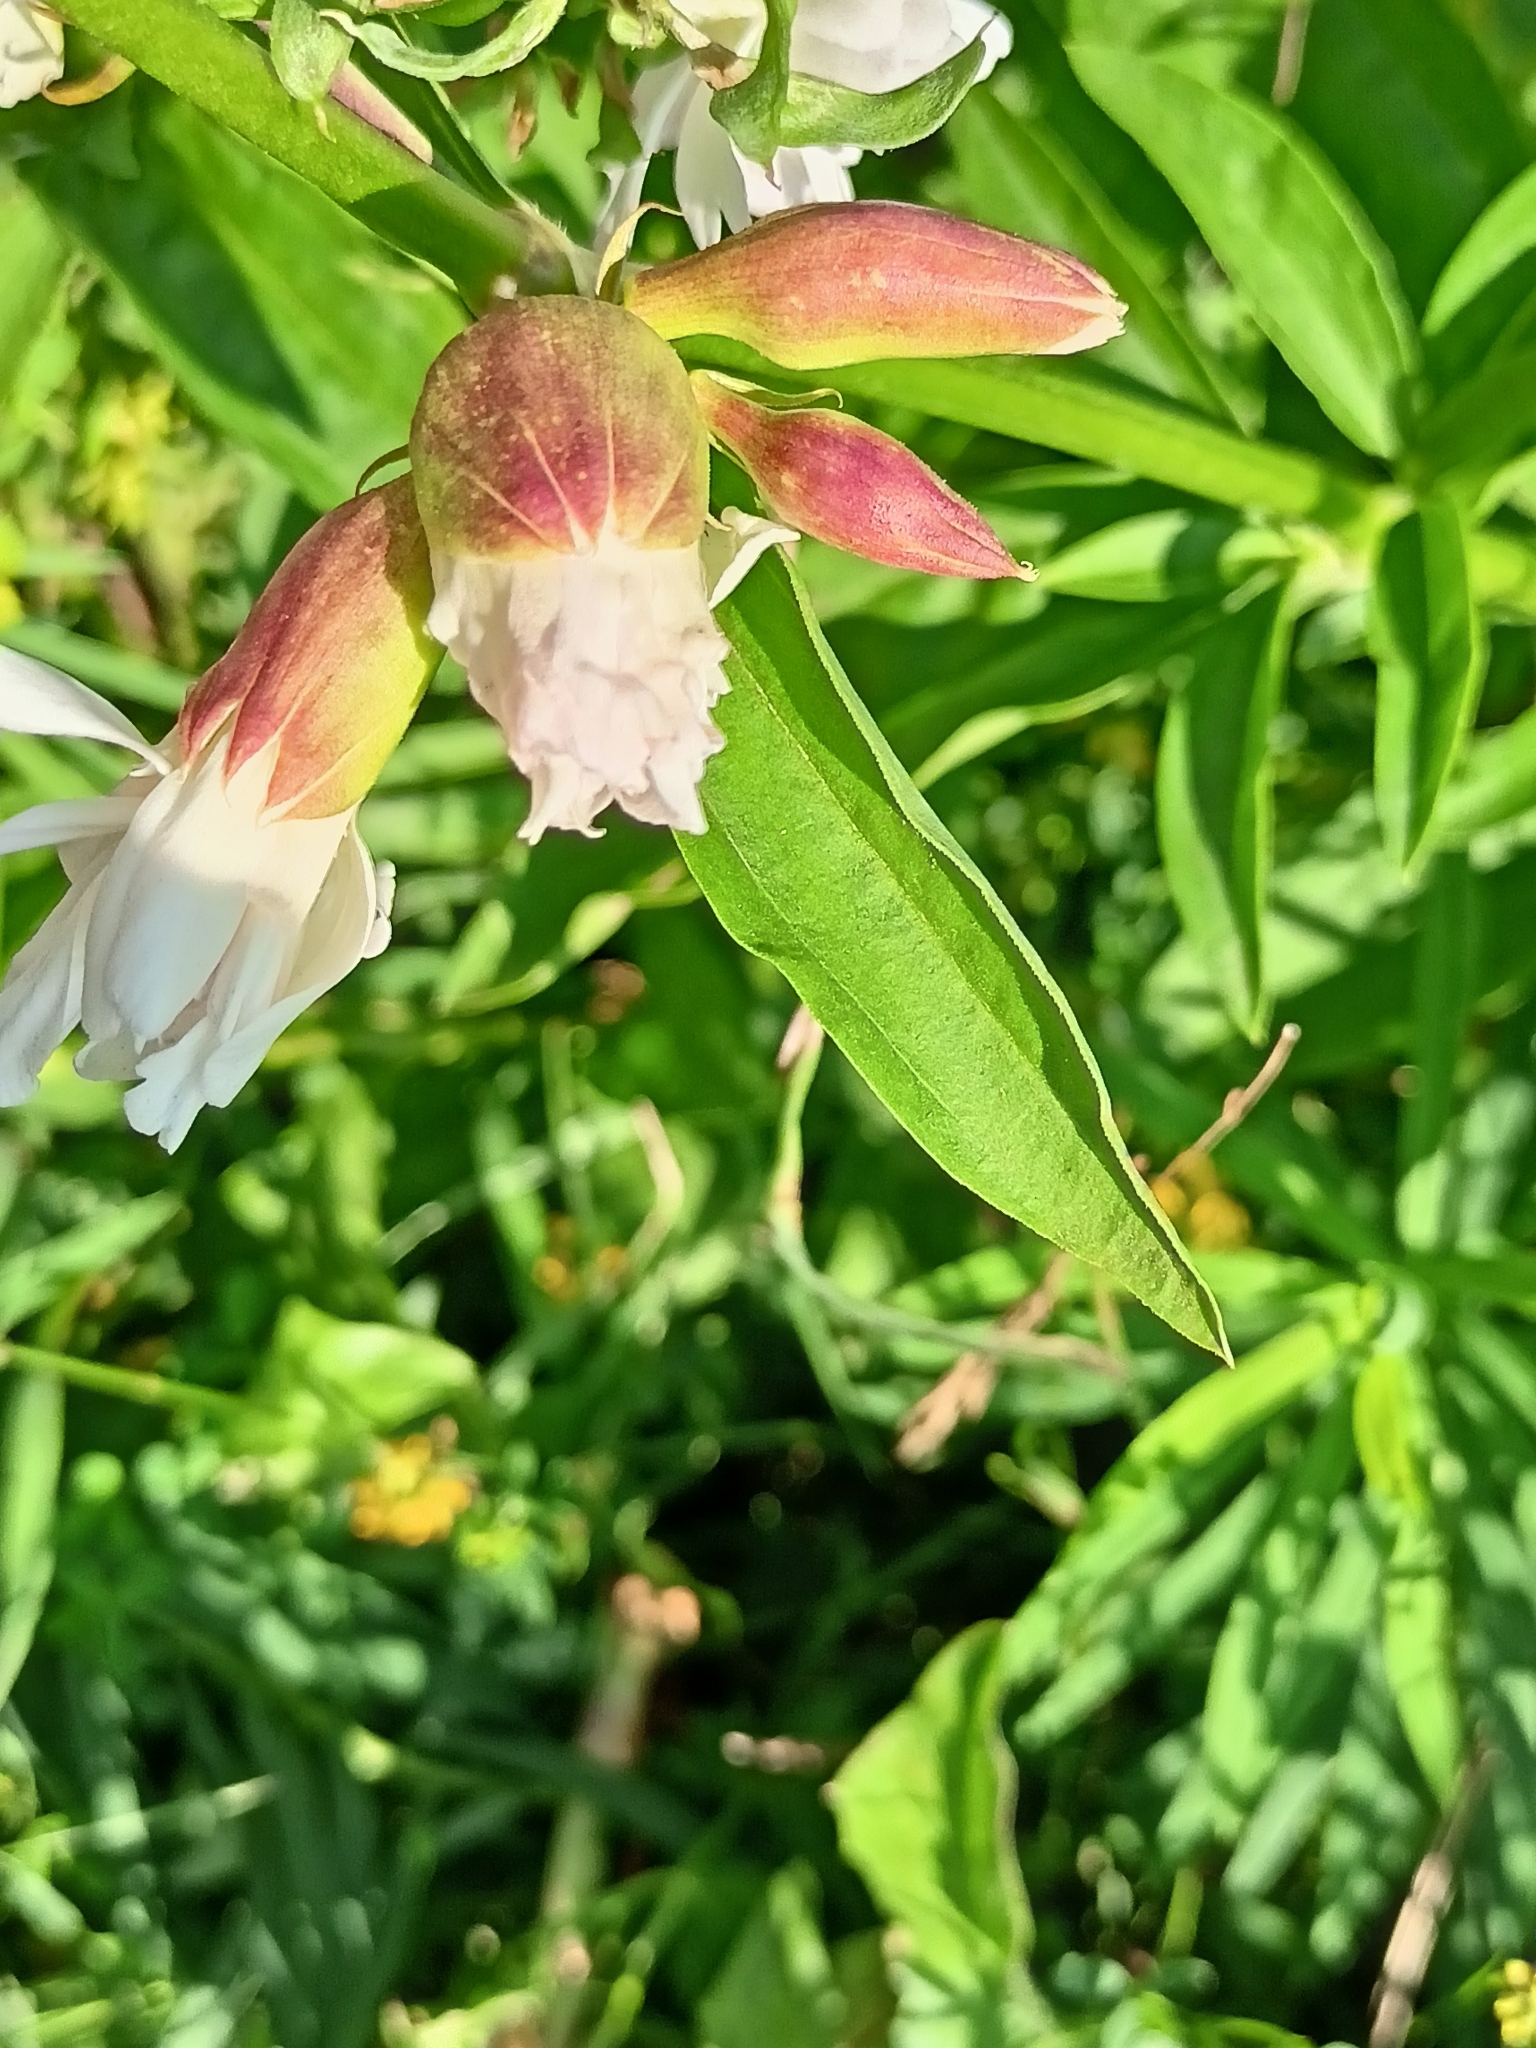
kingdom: Plantae
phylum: Tracheophyta
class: Magnoliopsida
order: Caryophyllales
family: Caryophyllaceae
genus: Saponaria
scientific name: Saponaria officinalis
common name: Soapwort
